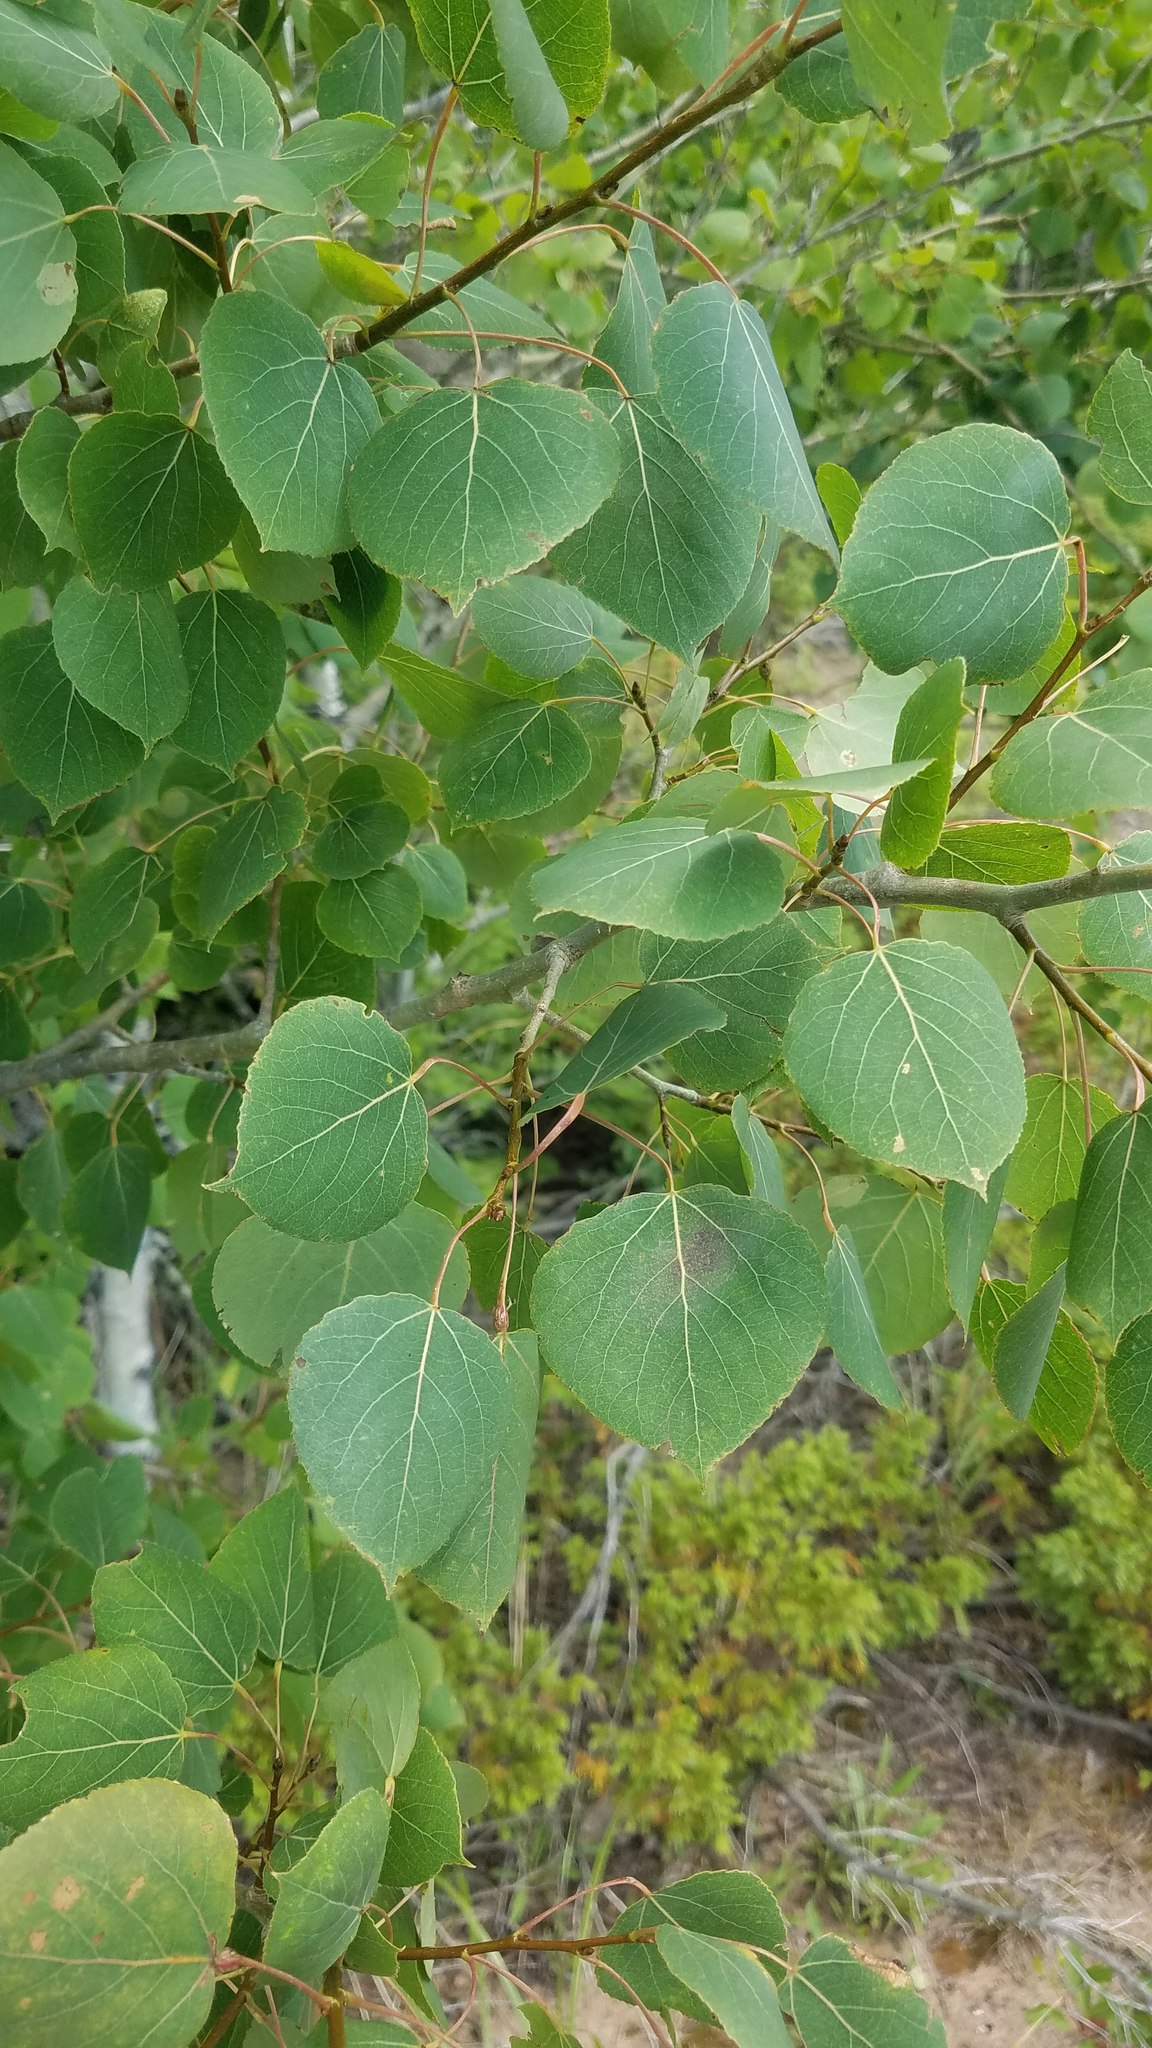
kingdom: Plantae
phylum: Tracheophyta
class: Magnoliopsida
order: Malpighiales
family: Salicaceae
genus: Populus
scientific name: Populus tremuloides
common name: Quaking aspen
